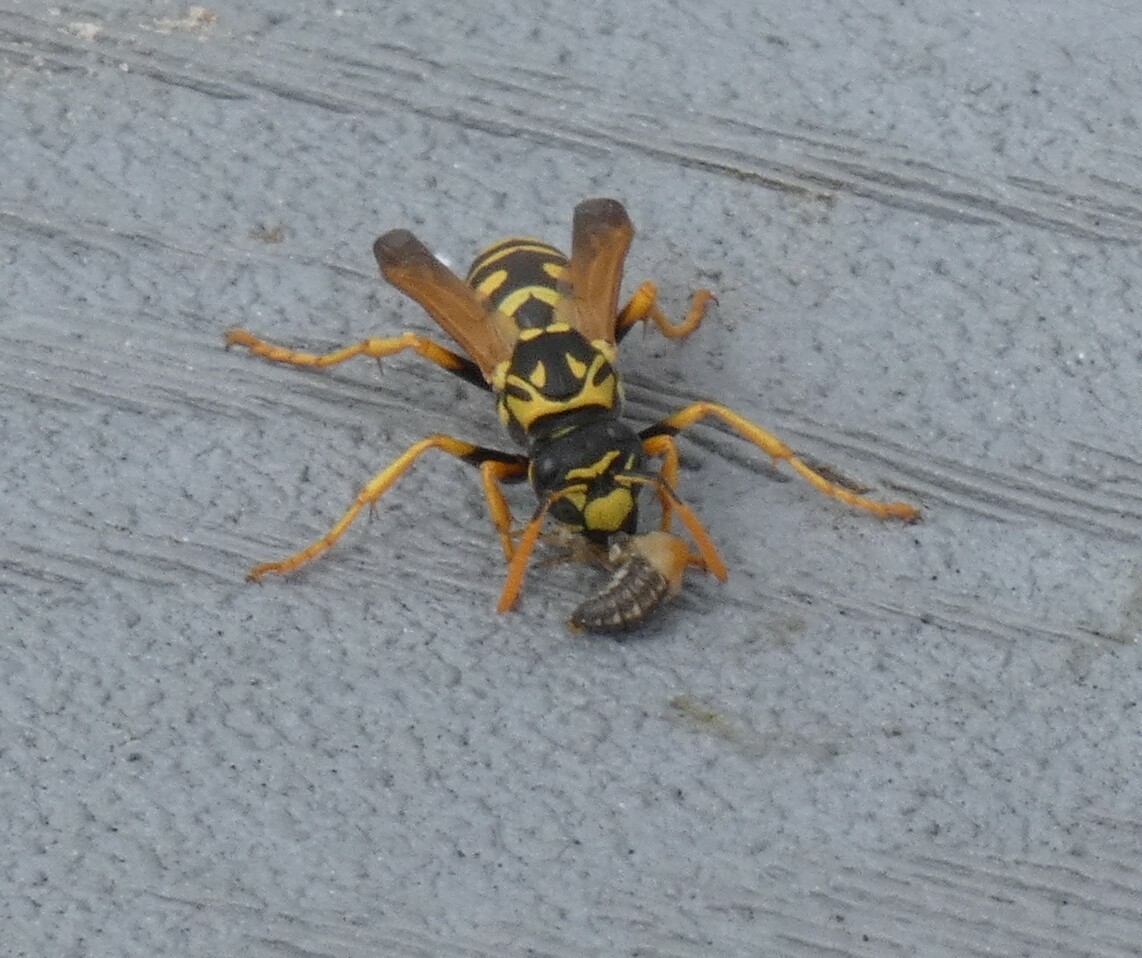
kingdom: Animalia
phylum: Arthropoda
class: Insecta
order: Hymenoptera
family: Eumenidae
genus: Polistes
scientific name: Polistes dominula
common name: Paper wasp
